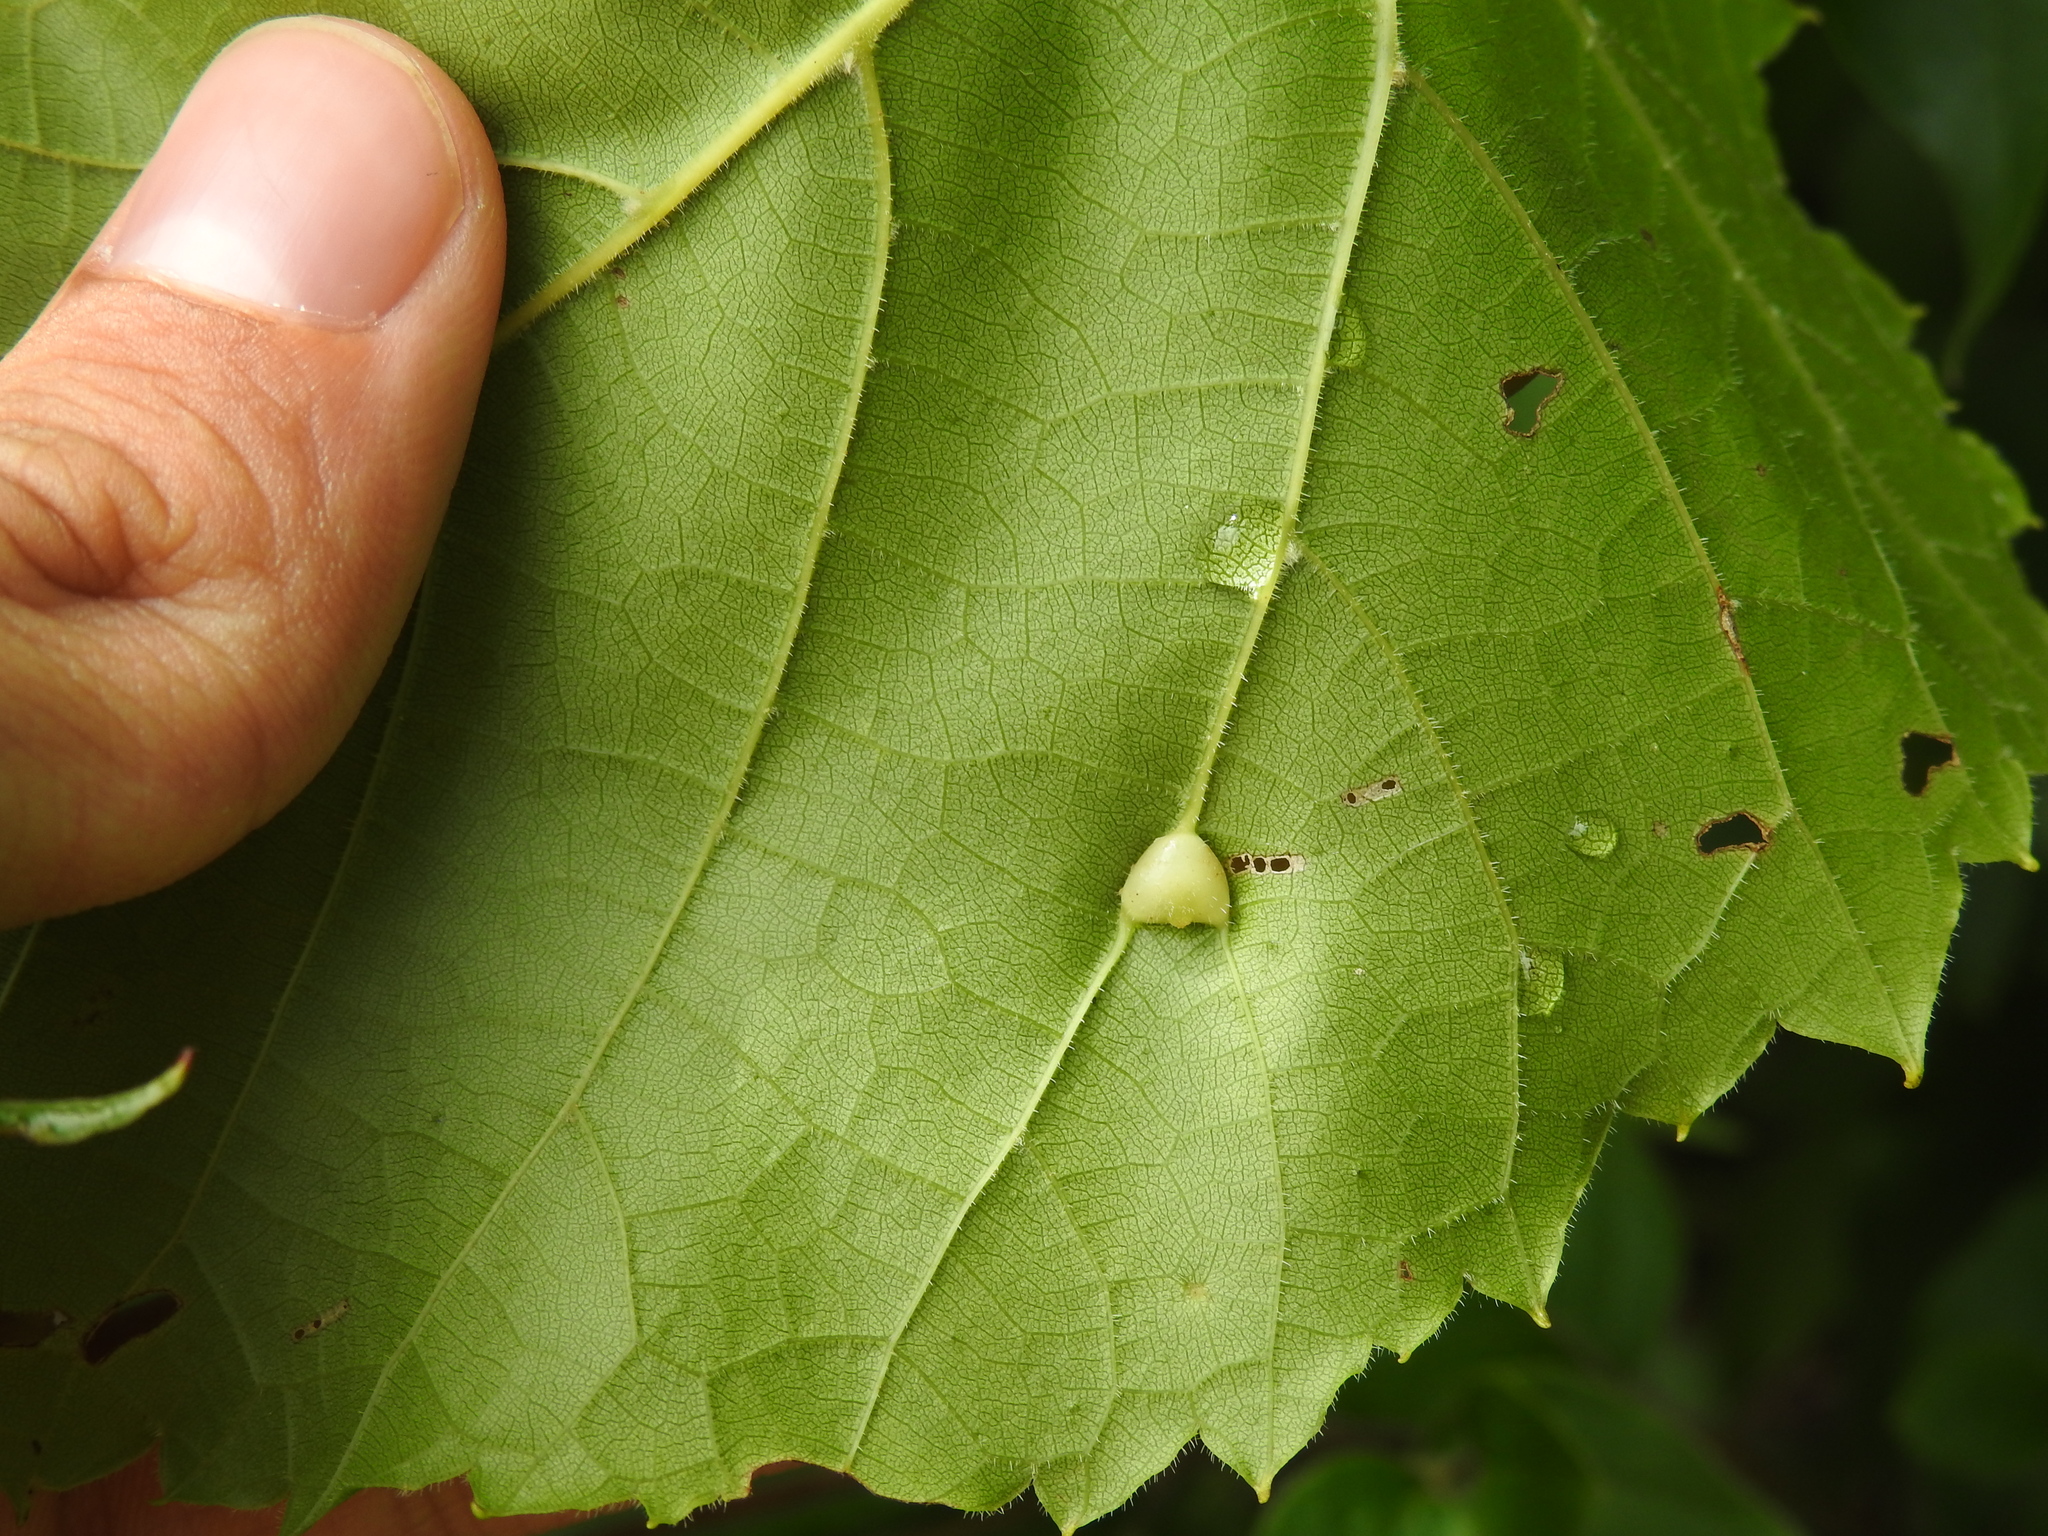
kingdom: Animalia
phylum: Arthropoda
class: Insecta
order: Diptera
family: Cecidomyiidae
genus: Vitisiella
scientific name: Vitisiella brevicauda
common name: Grape tumid gallmaker midge
